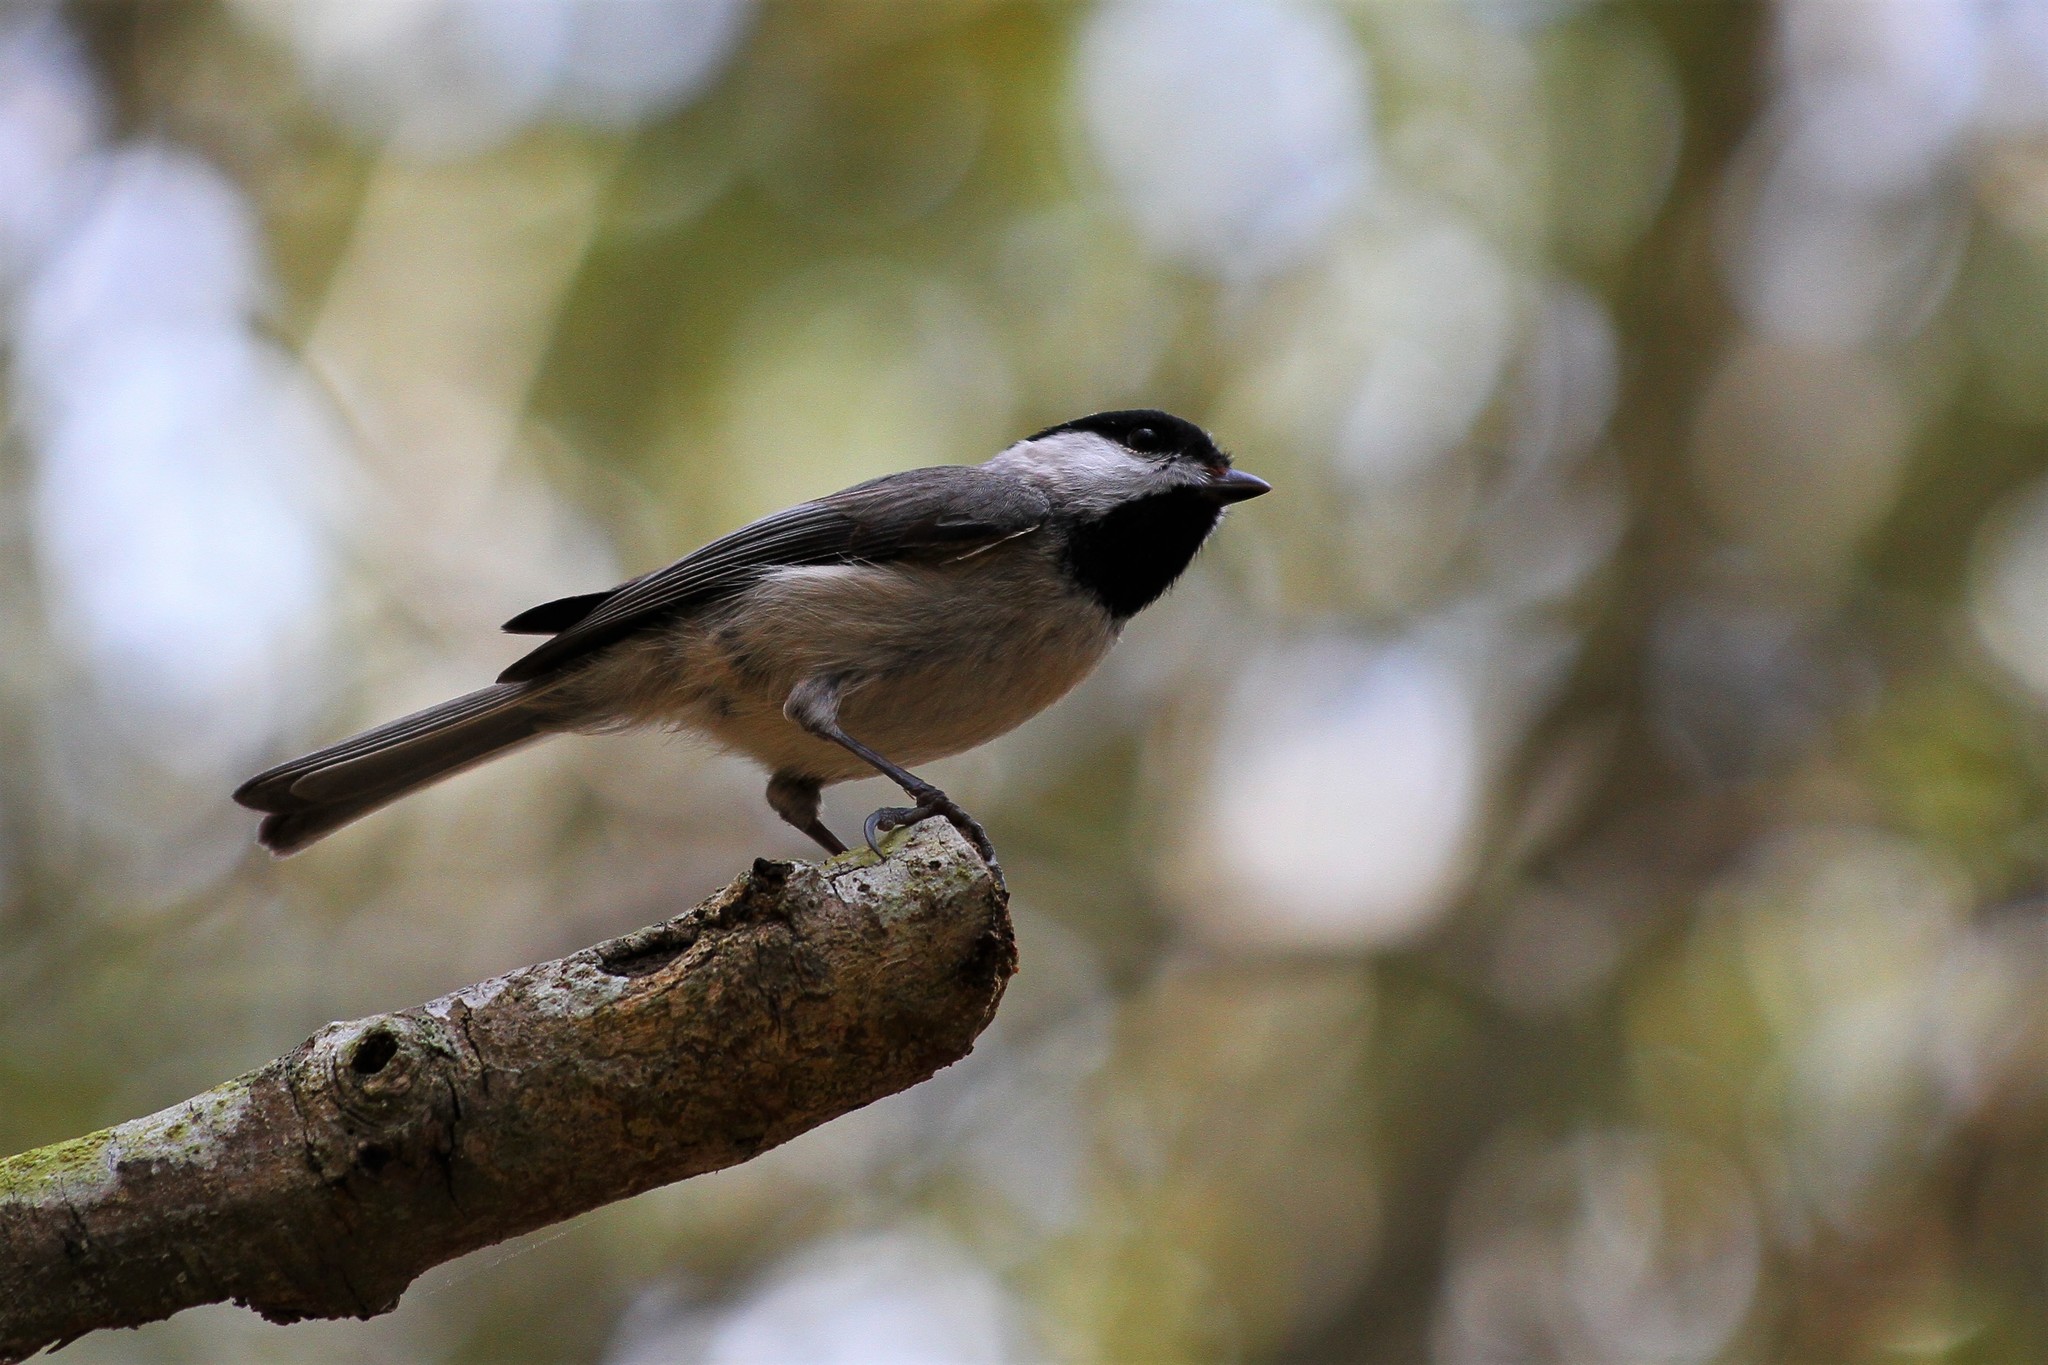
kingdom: Animalia
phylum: Chordata
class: Aves
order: Passeriformes
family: Paridae
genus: Poecile
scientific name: Poecile carolinensis
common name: Carolina chickadee
